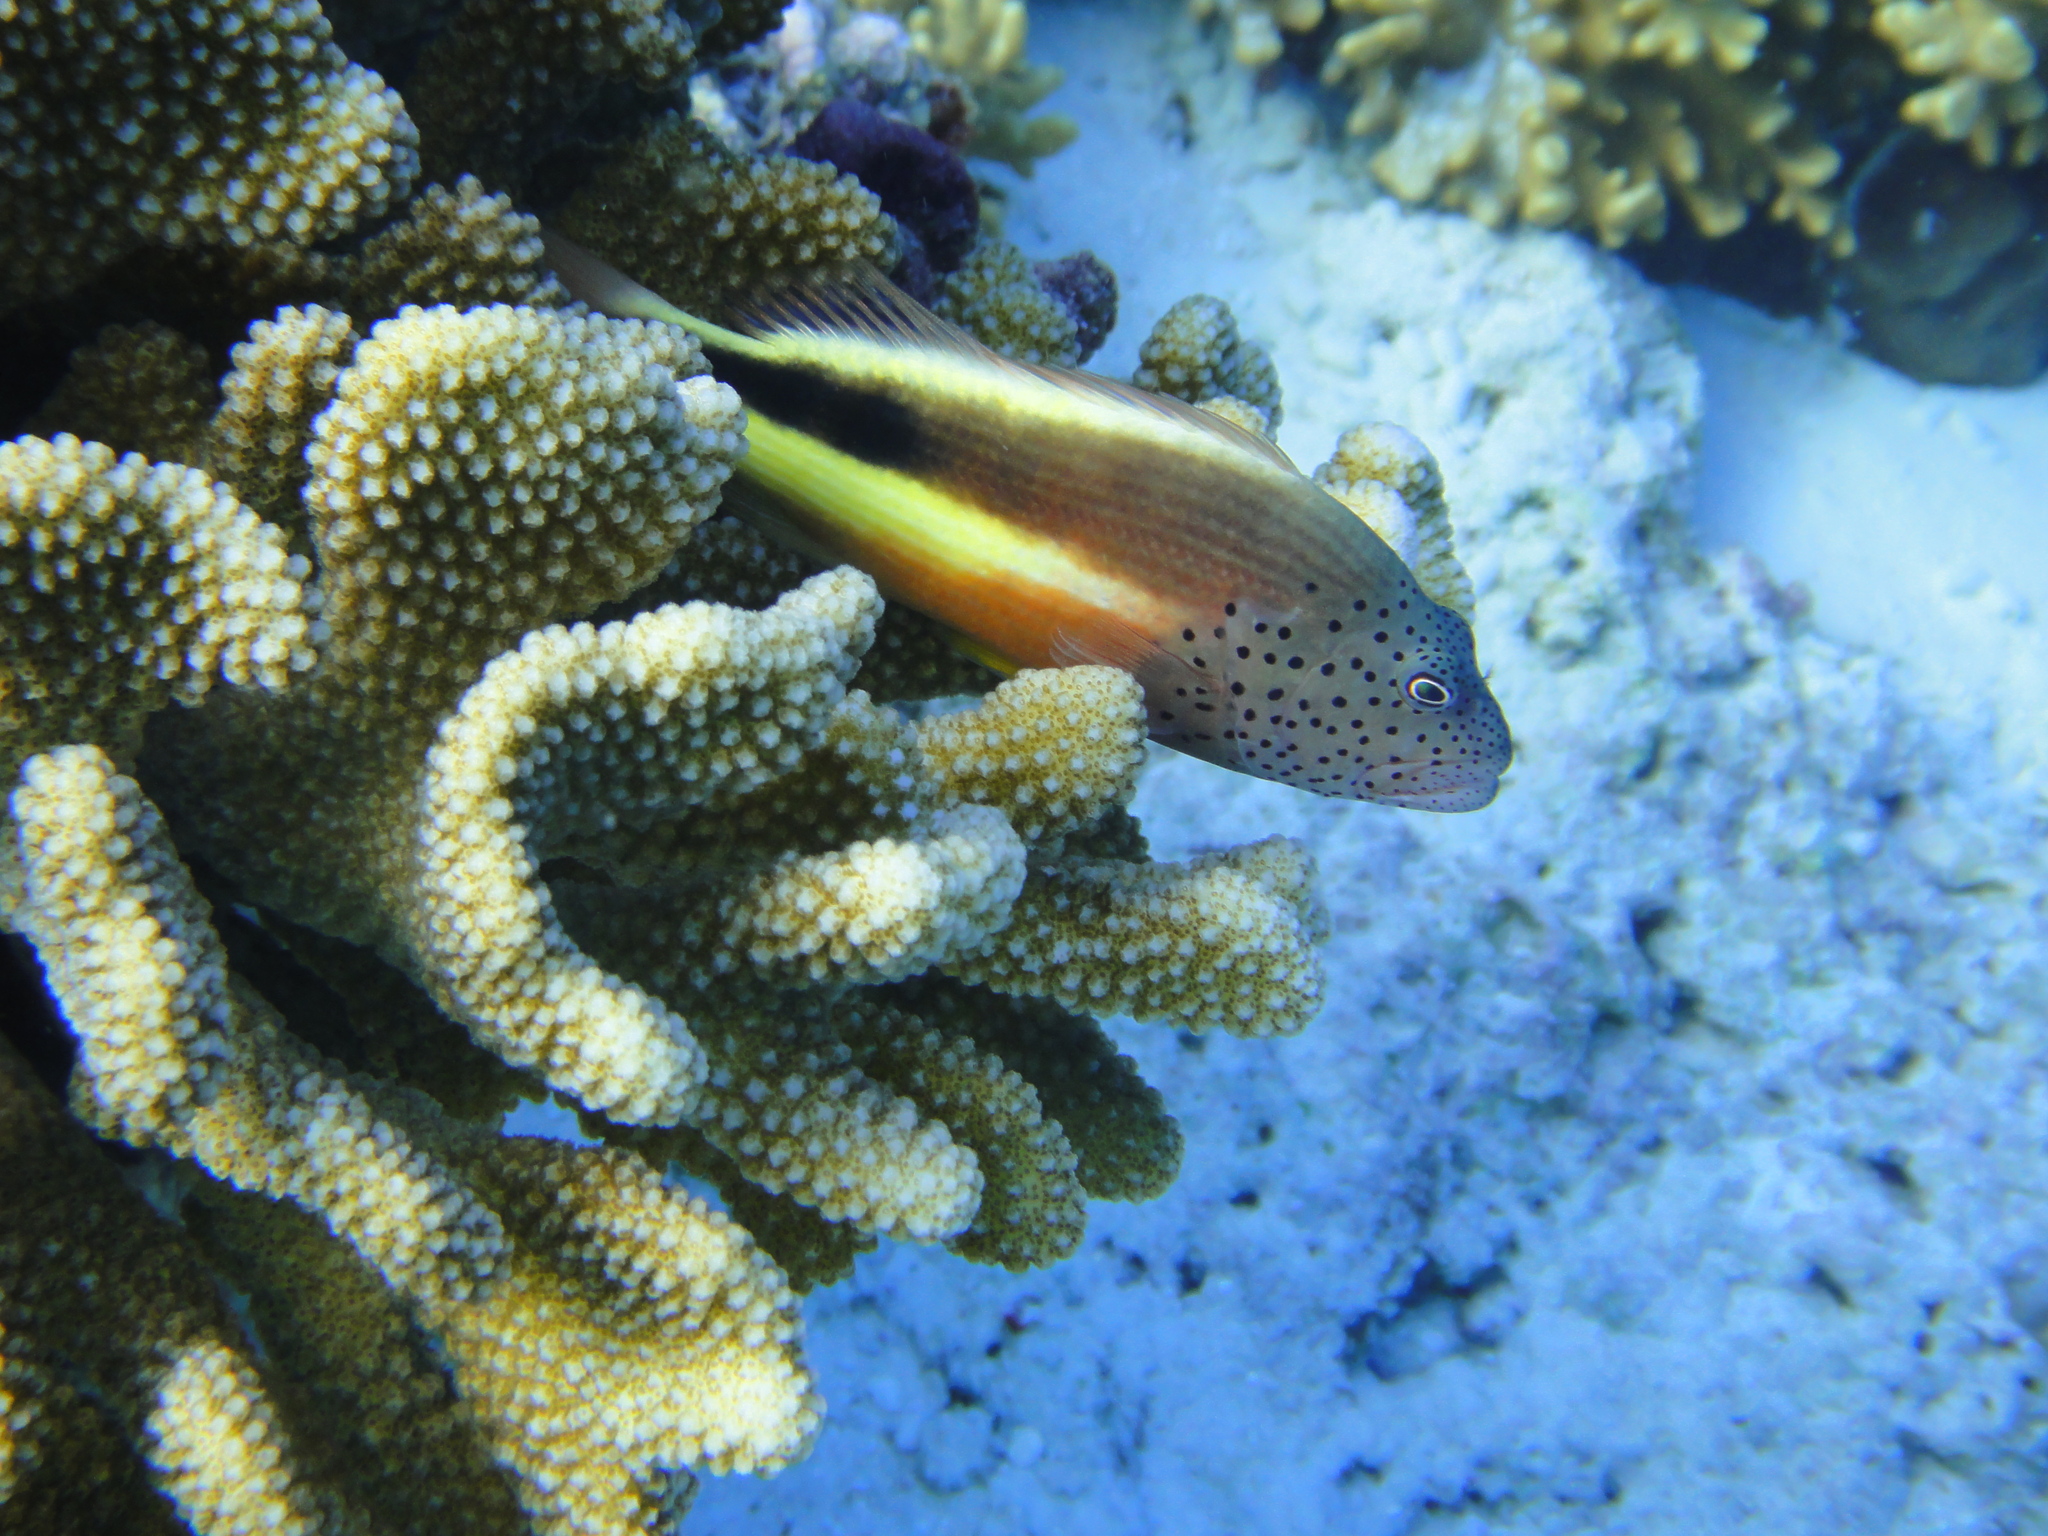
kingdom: Animalia
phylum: Chordata
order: Perciformes
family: Cirrhitidae
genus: Paracirrhites
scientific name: Paracirrhites forsteri
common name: Freckled hawkfish
